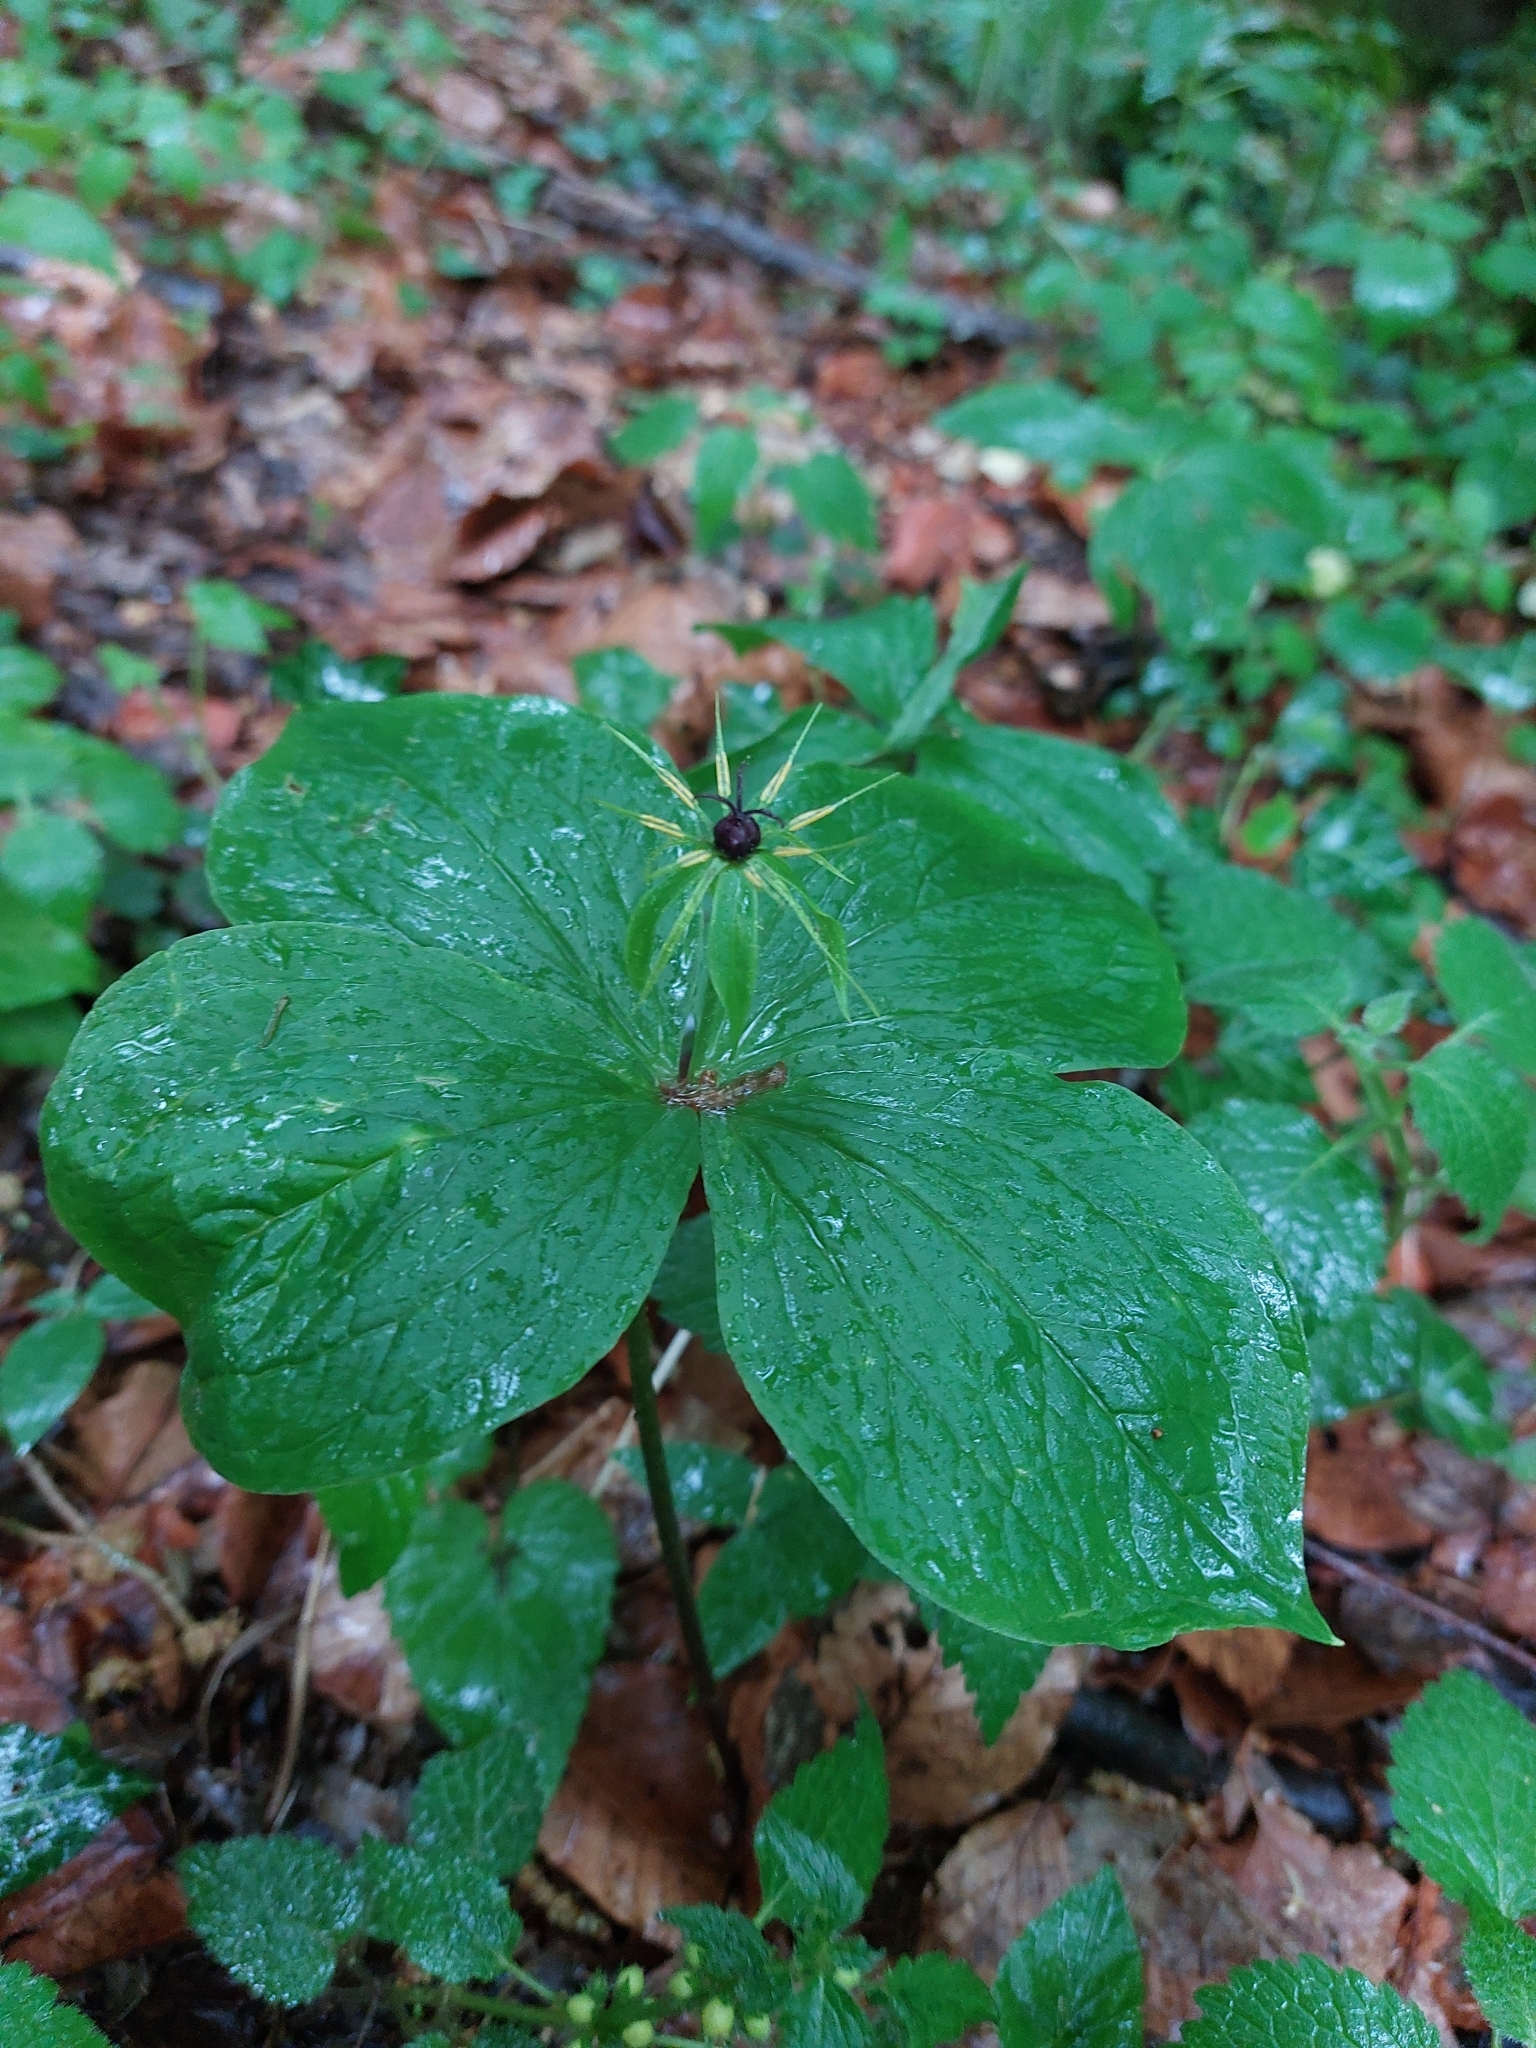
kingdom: Plantae
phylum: Tracheophyta
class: Liliopsida
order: Liliales
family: Melanthiaceae
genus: Paris
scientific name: Paris quadrifolia
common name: Herb-paris
